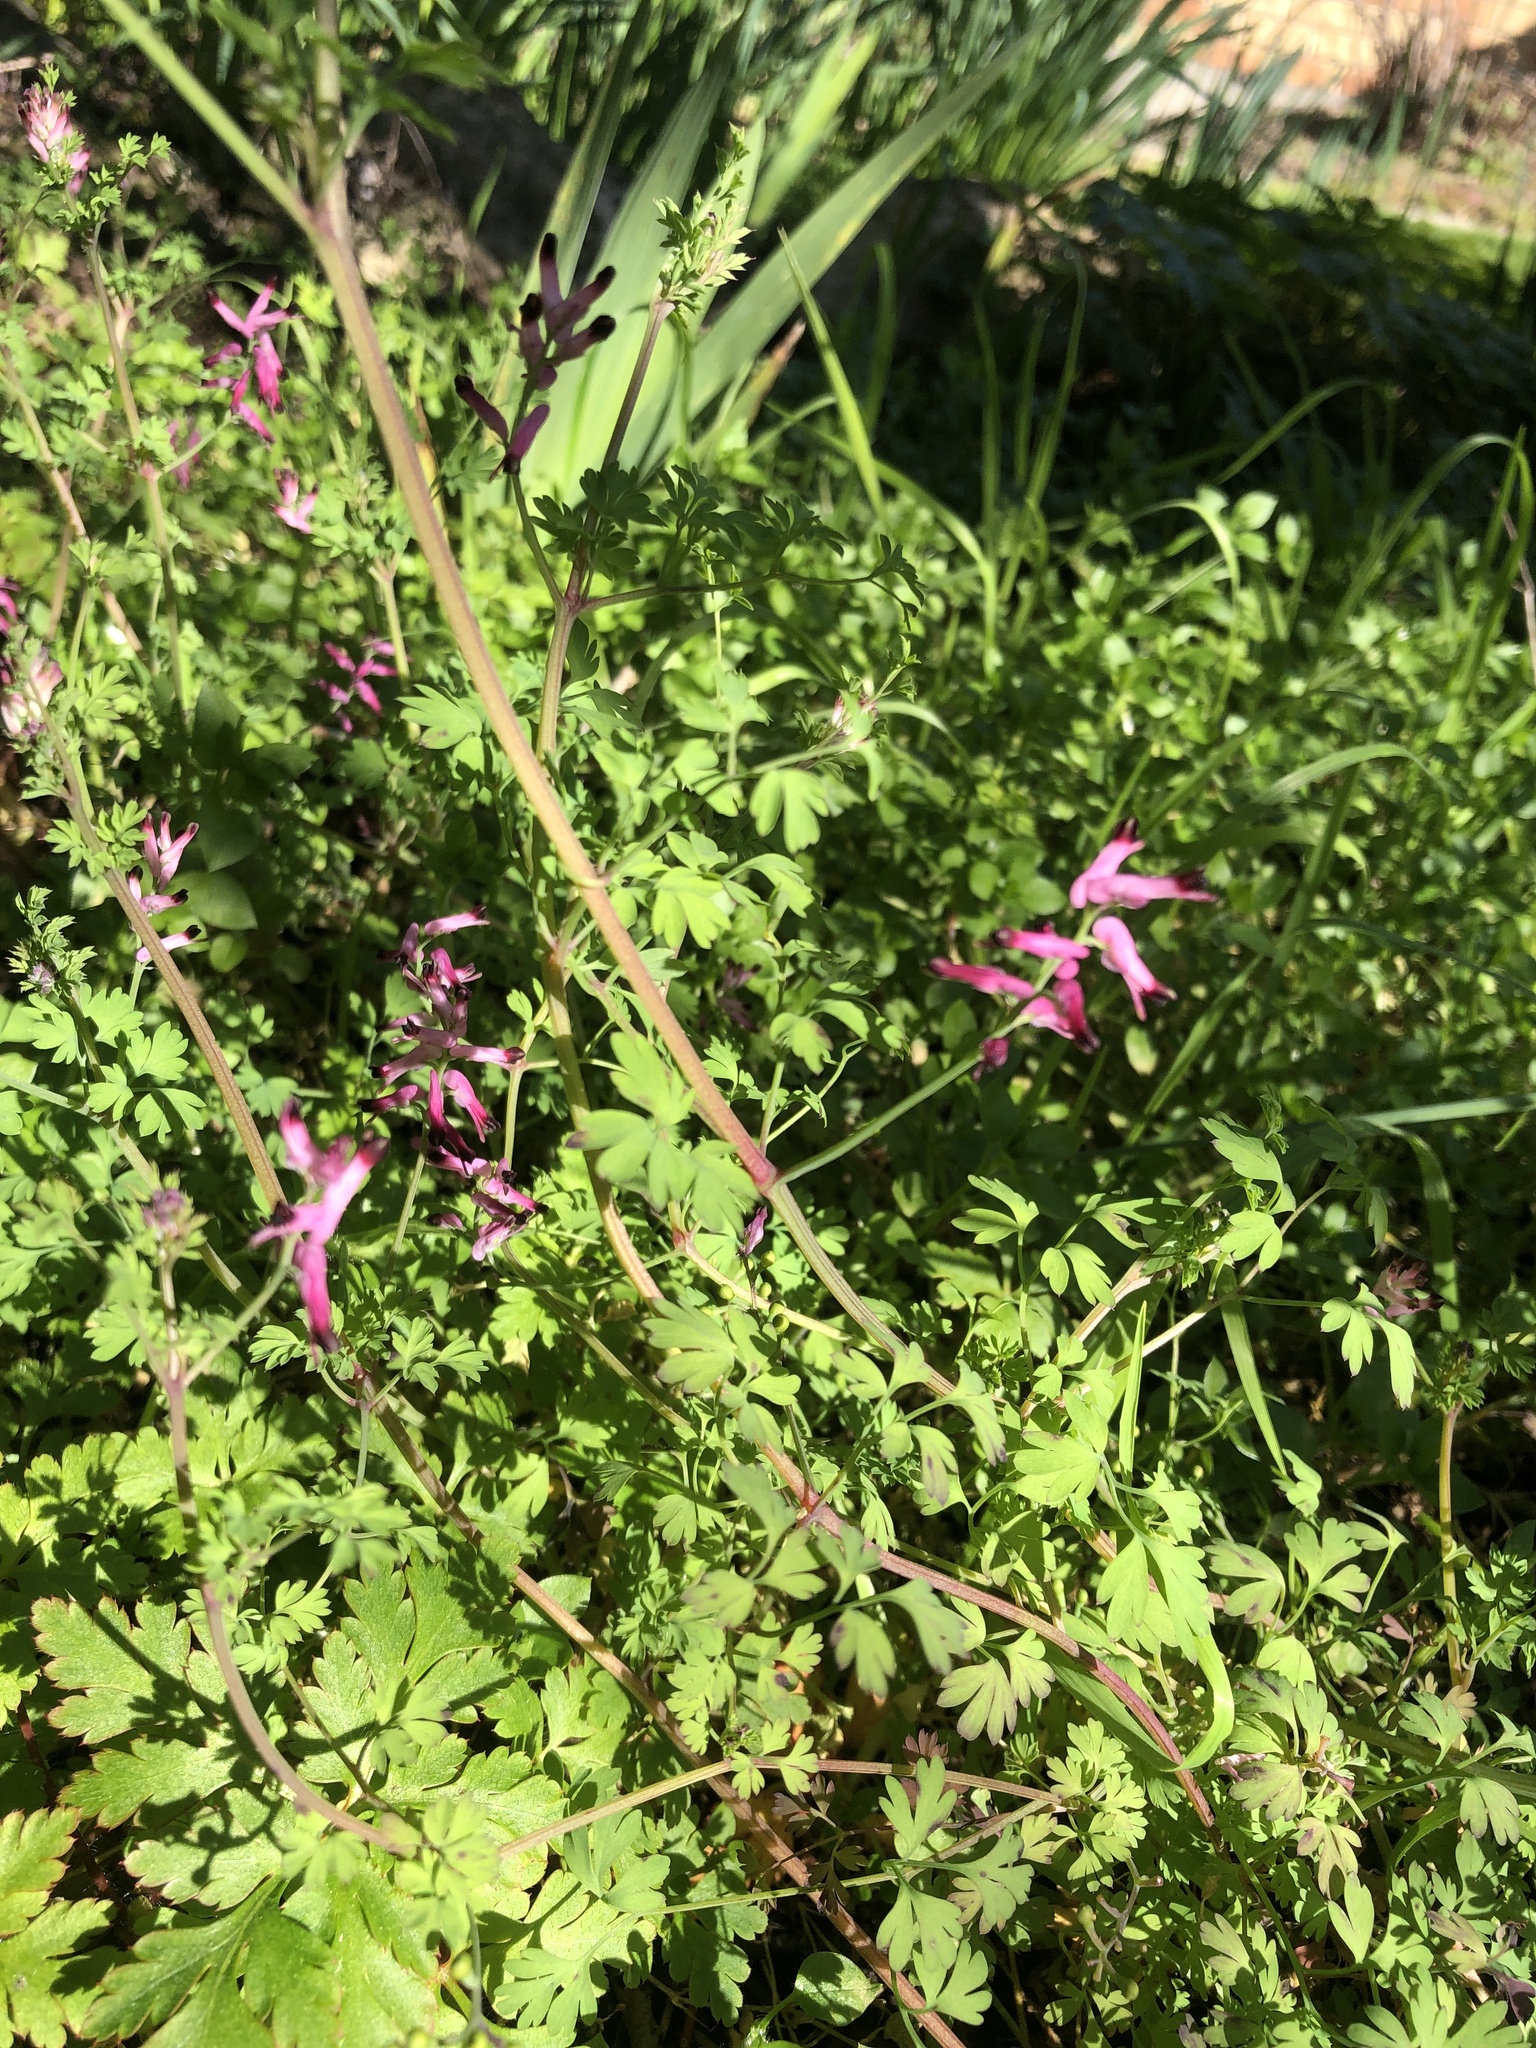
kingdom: Plantae
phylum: Tracheophyta
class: Magnoliopsida
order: Ranunculales
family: Papaveraceae
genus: Fumaria
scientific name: Fumaria muralis
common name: Common ramping-fumitory
